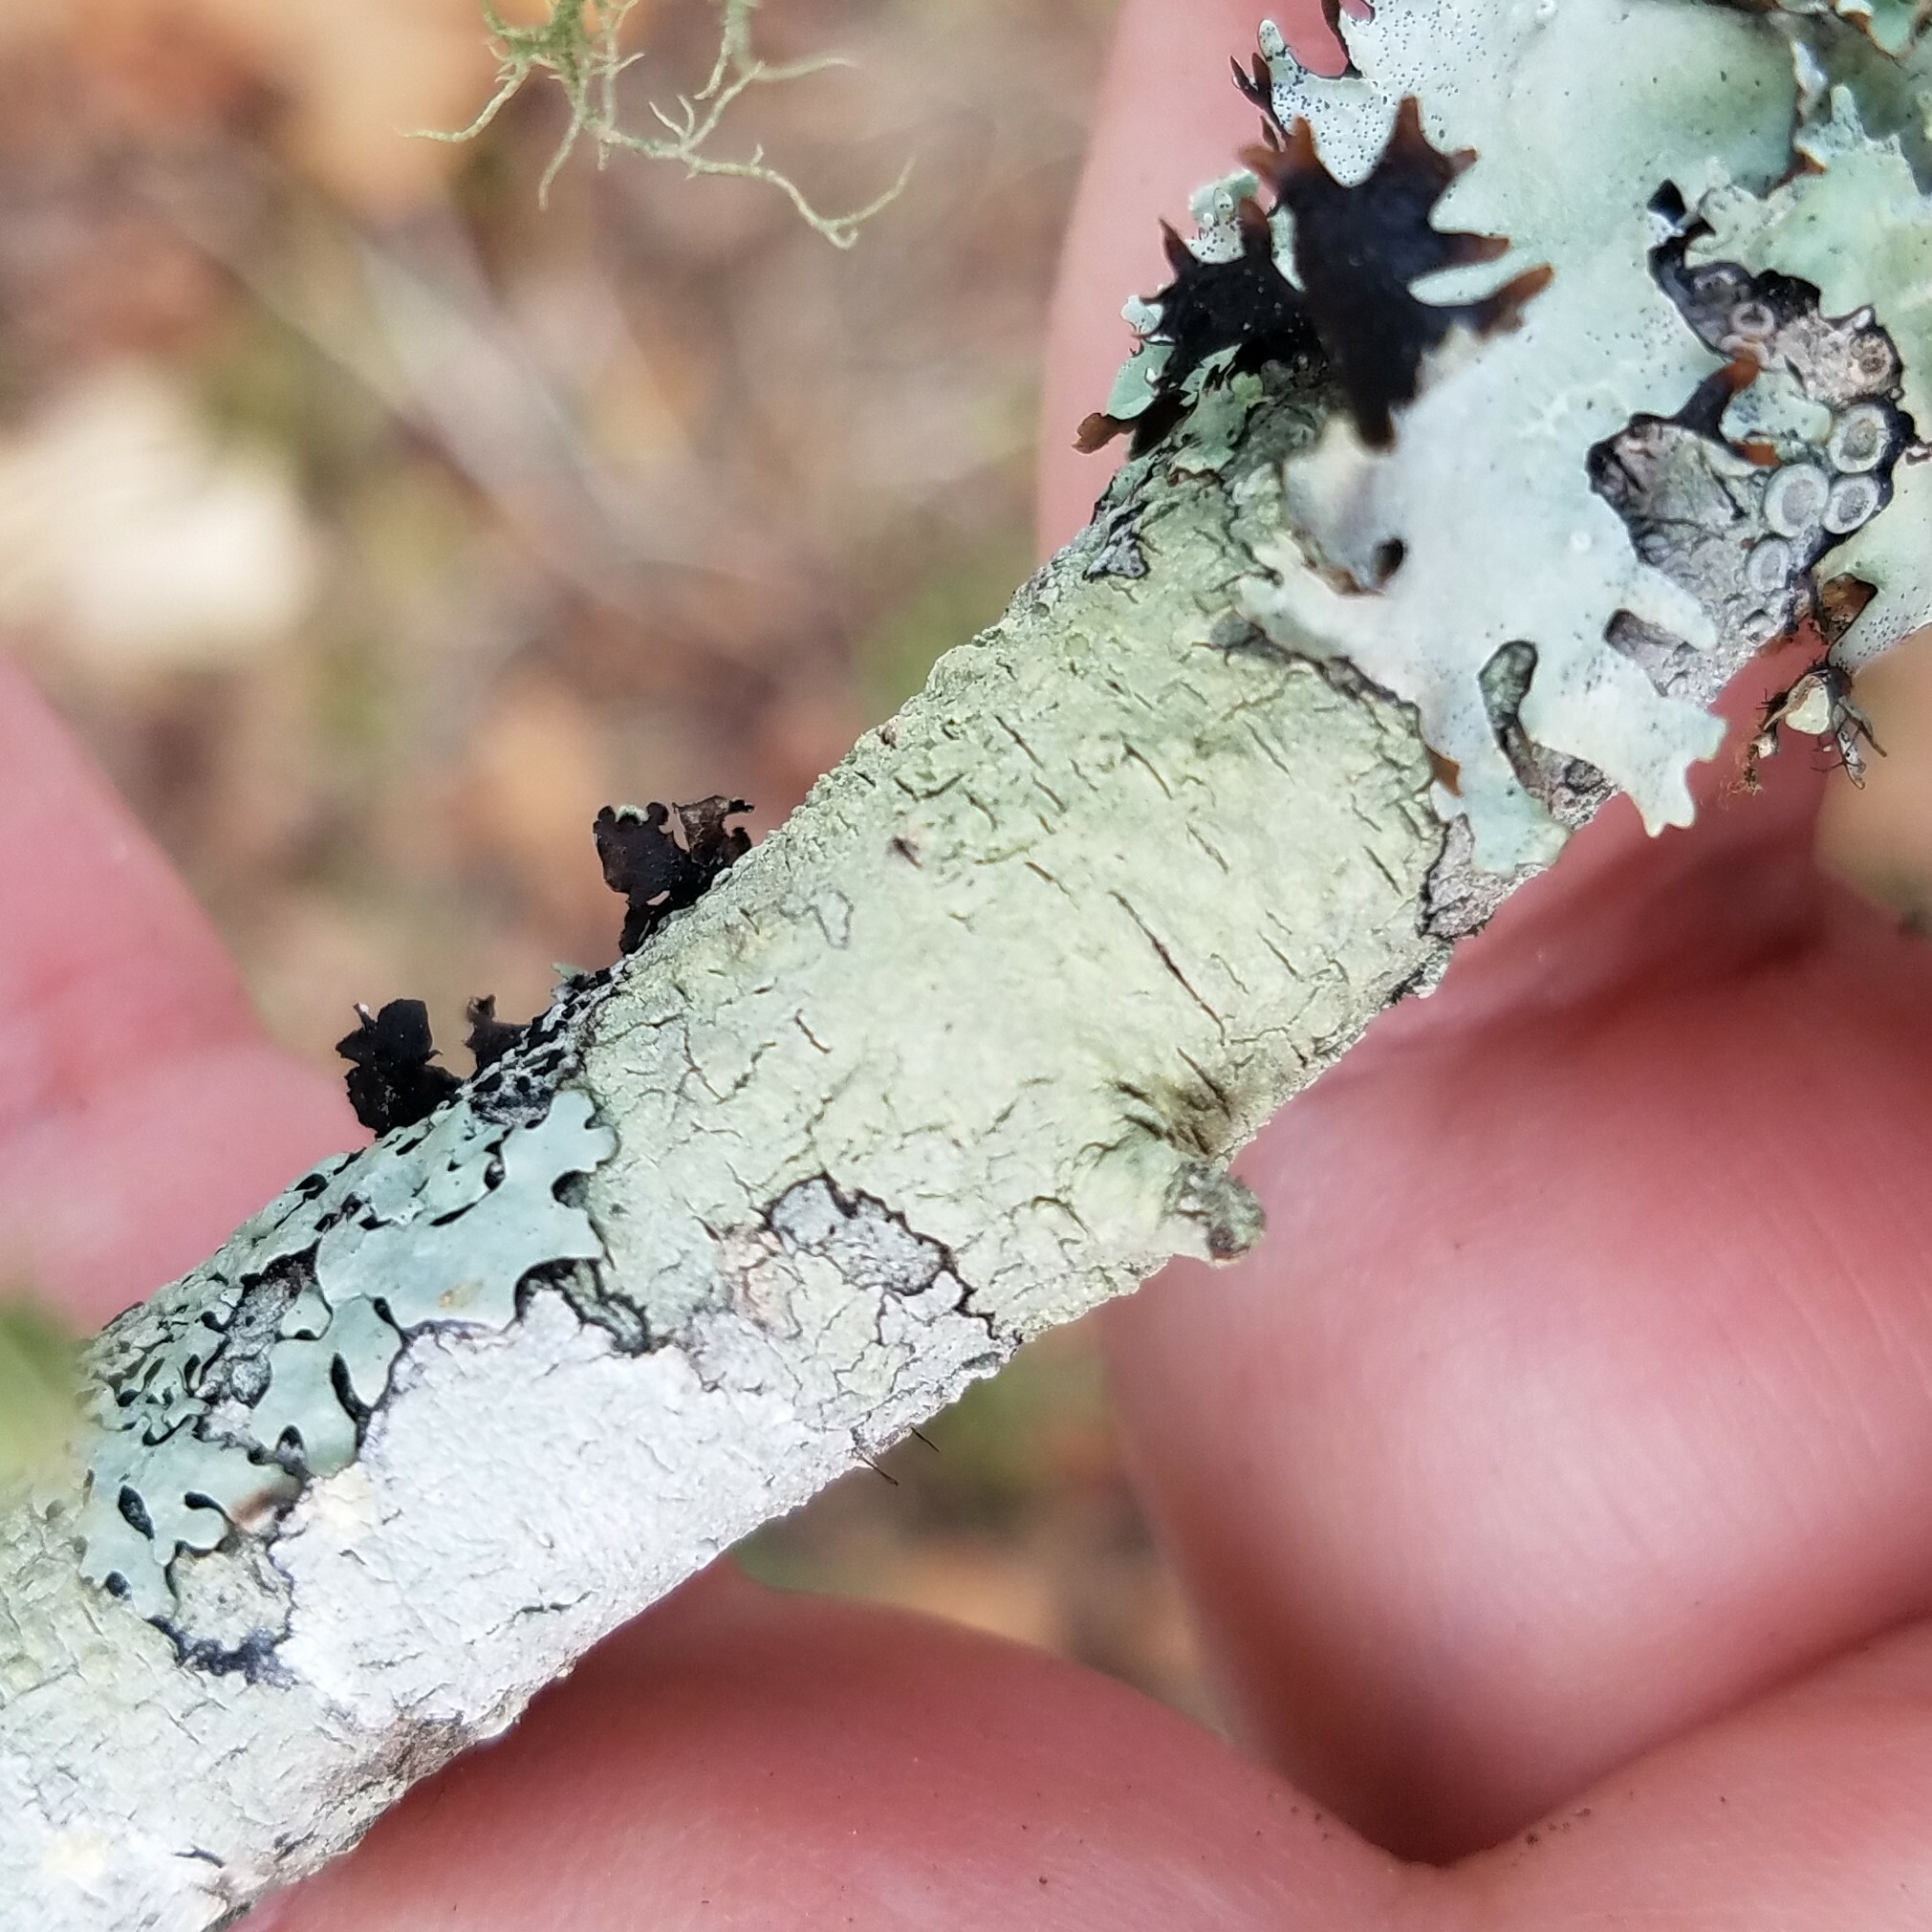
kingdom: Fungi
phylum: Ascomycota
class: Lecanoromycetes
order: Pertusariales
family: Pertusariaceae
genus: Pertusaria
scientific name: Pertusaria texana
